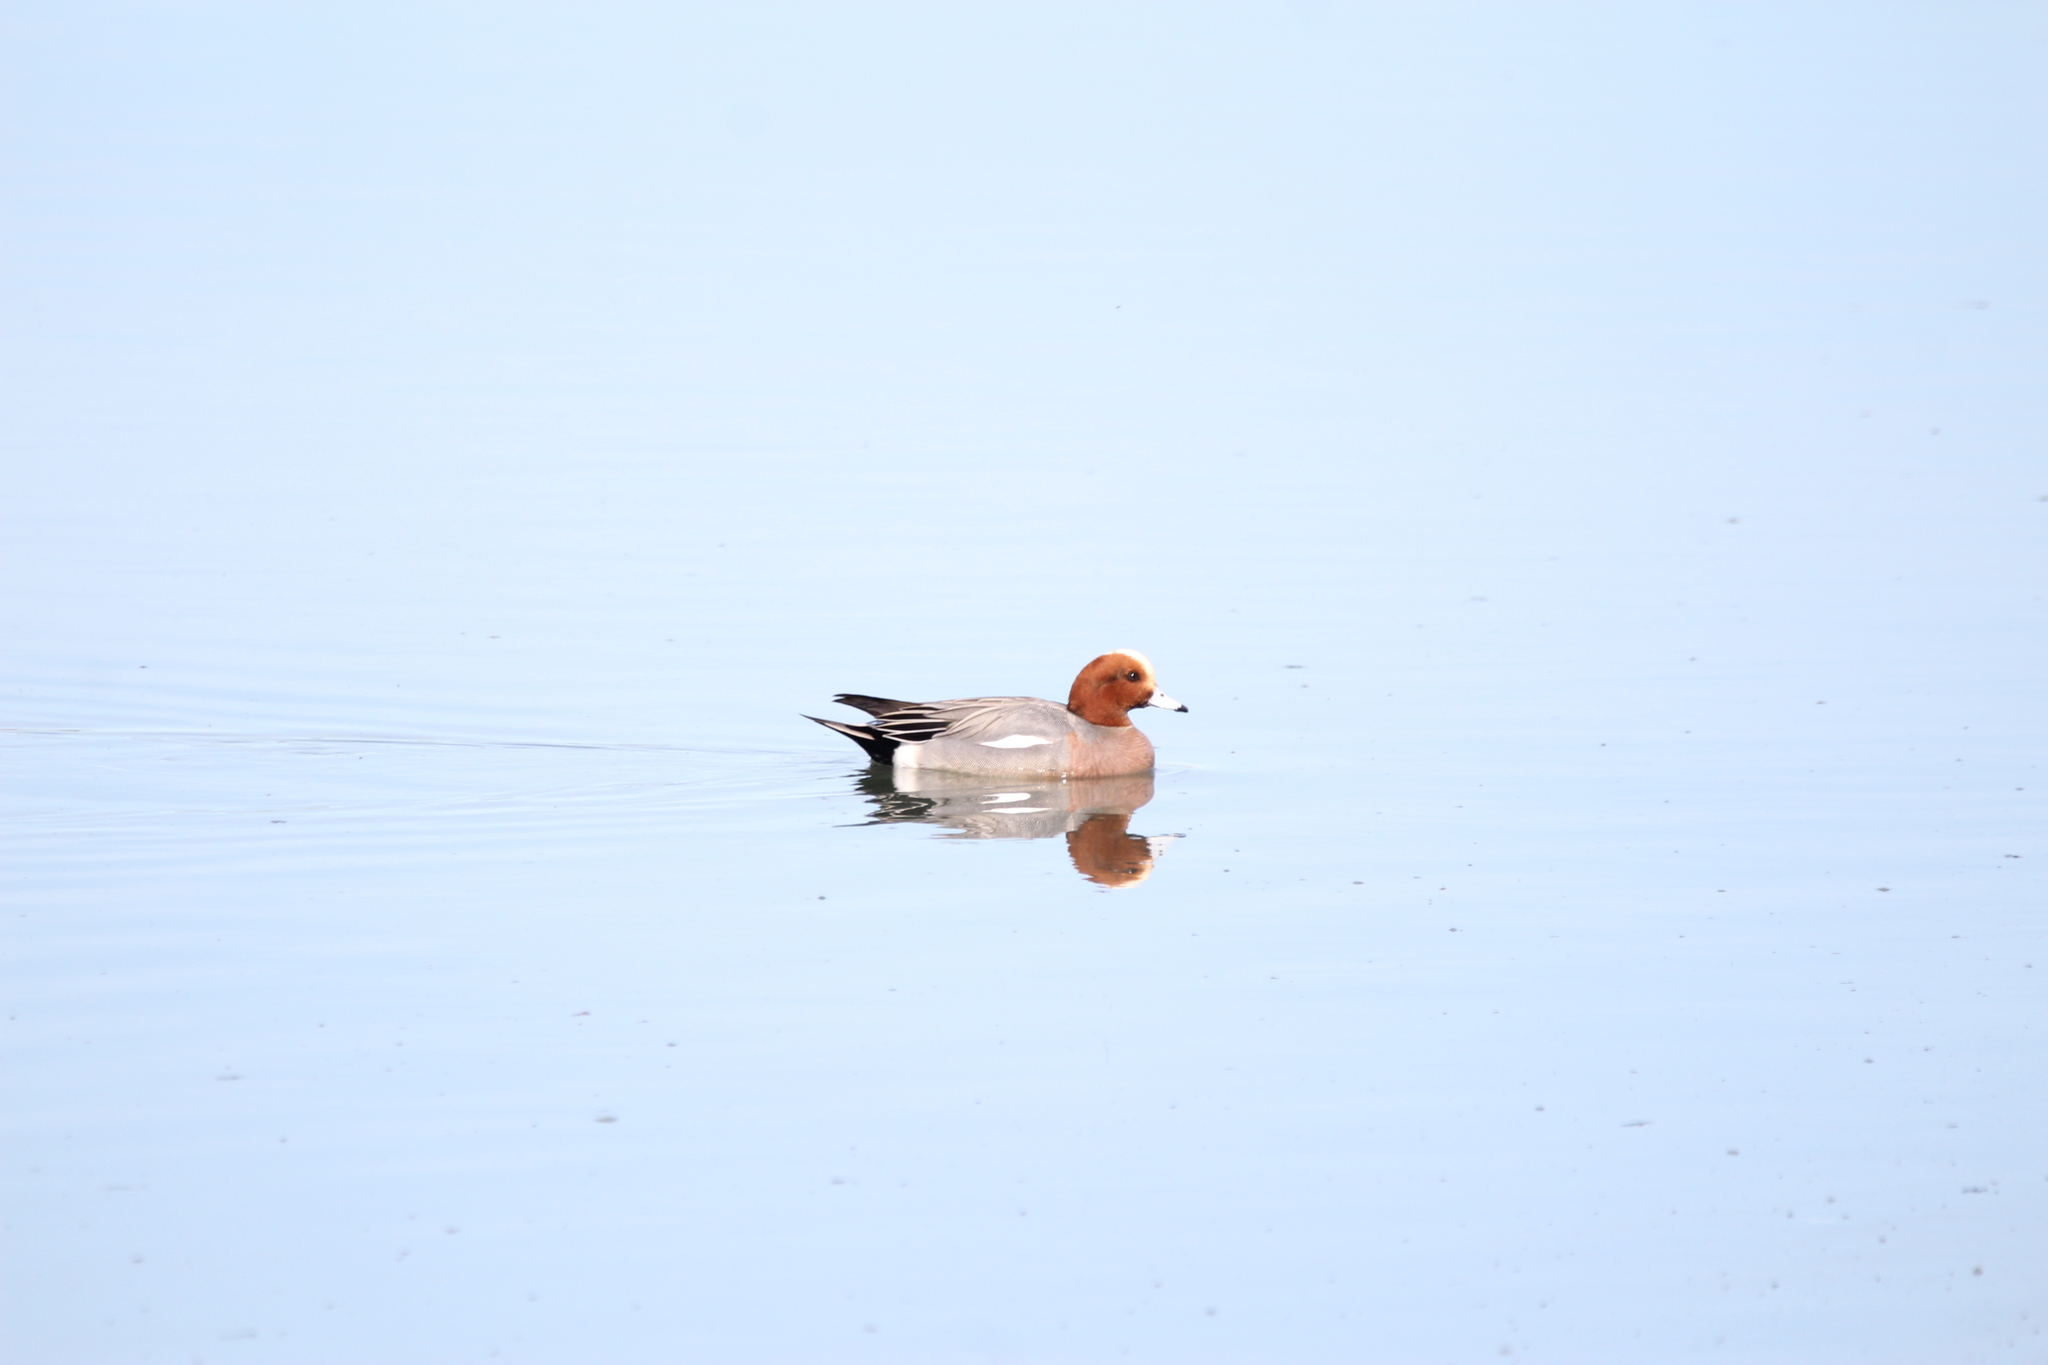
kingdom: Animalia
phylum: Chordata
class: Aves
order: Anseriformes
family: Anatidae
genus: Mareca
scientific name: Mareca penelope
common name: Eurasian wigeon
